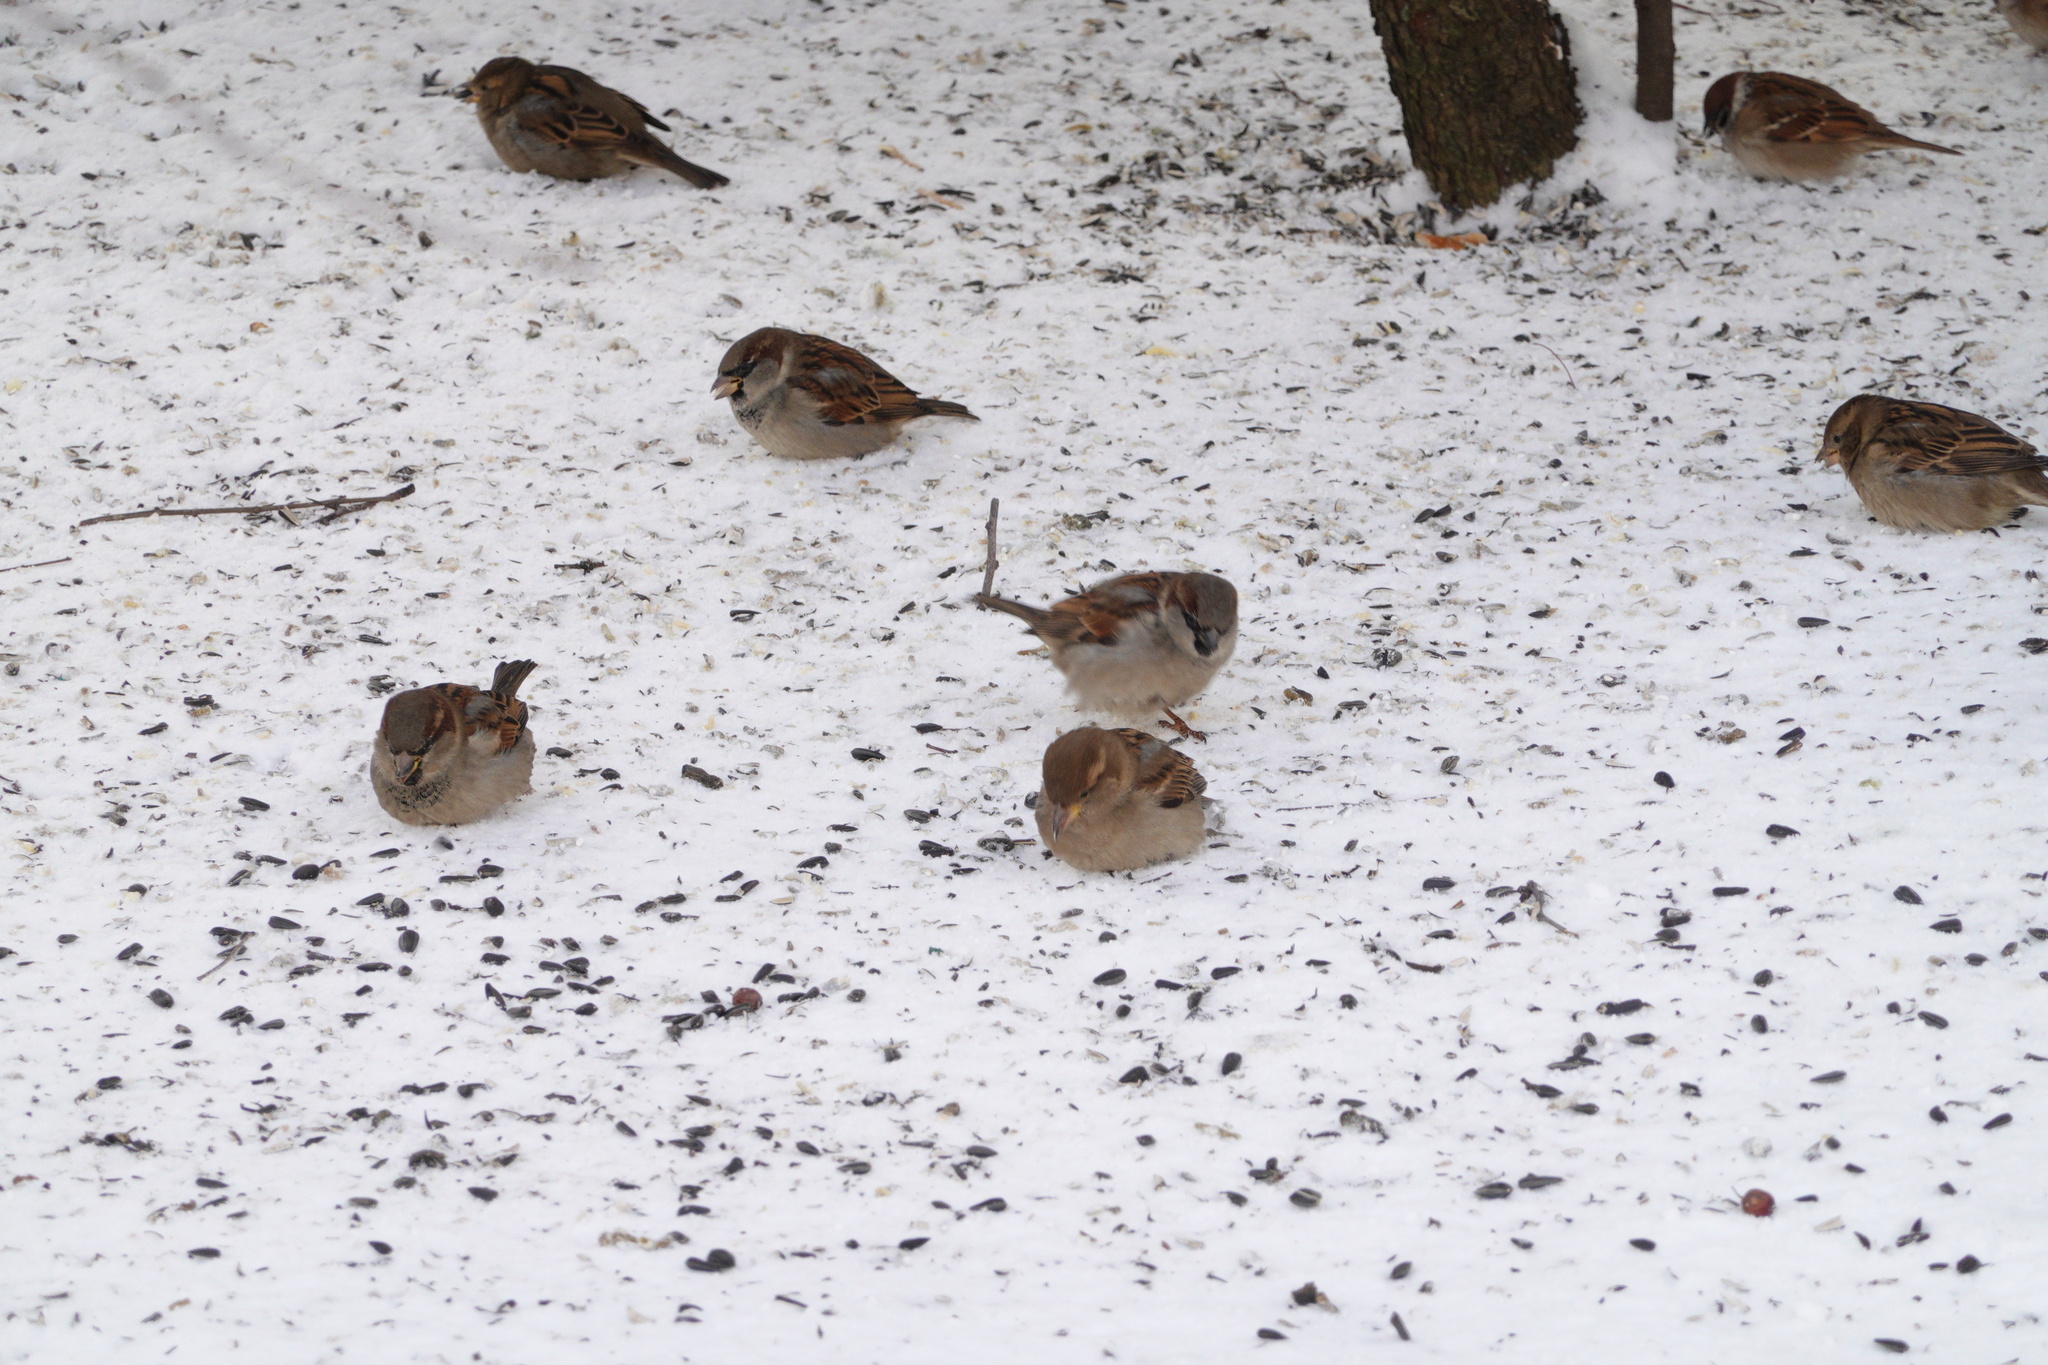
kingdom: Animalia
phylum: Chordata
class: Aves
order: Passeriformes
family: Passeridae
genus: Passer
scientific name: Passer domesticus
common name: House sparrow
